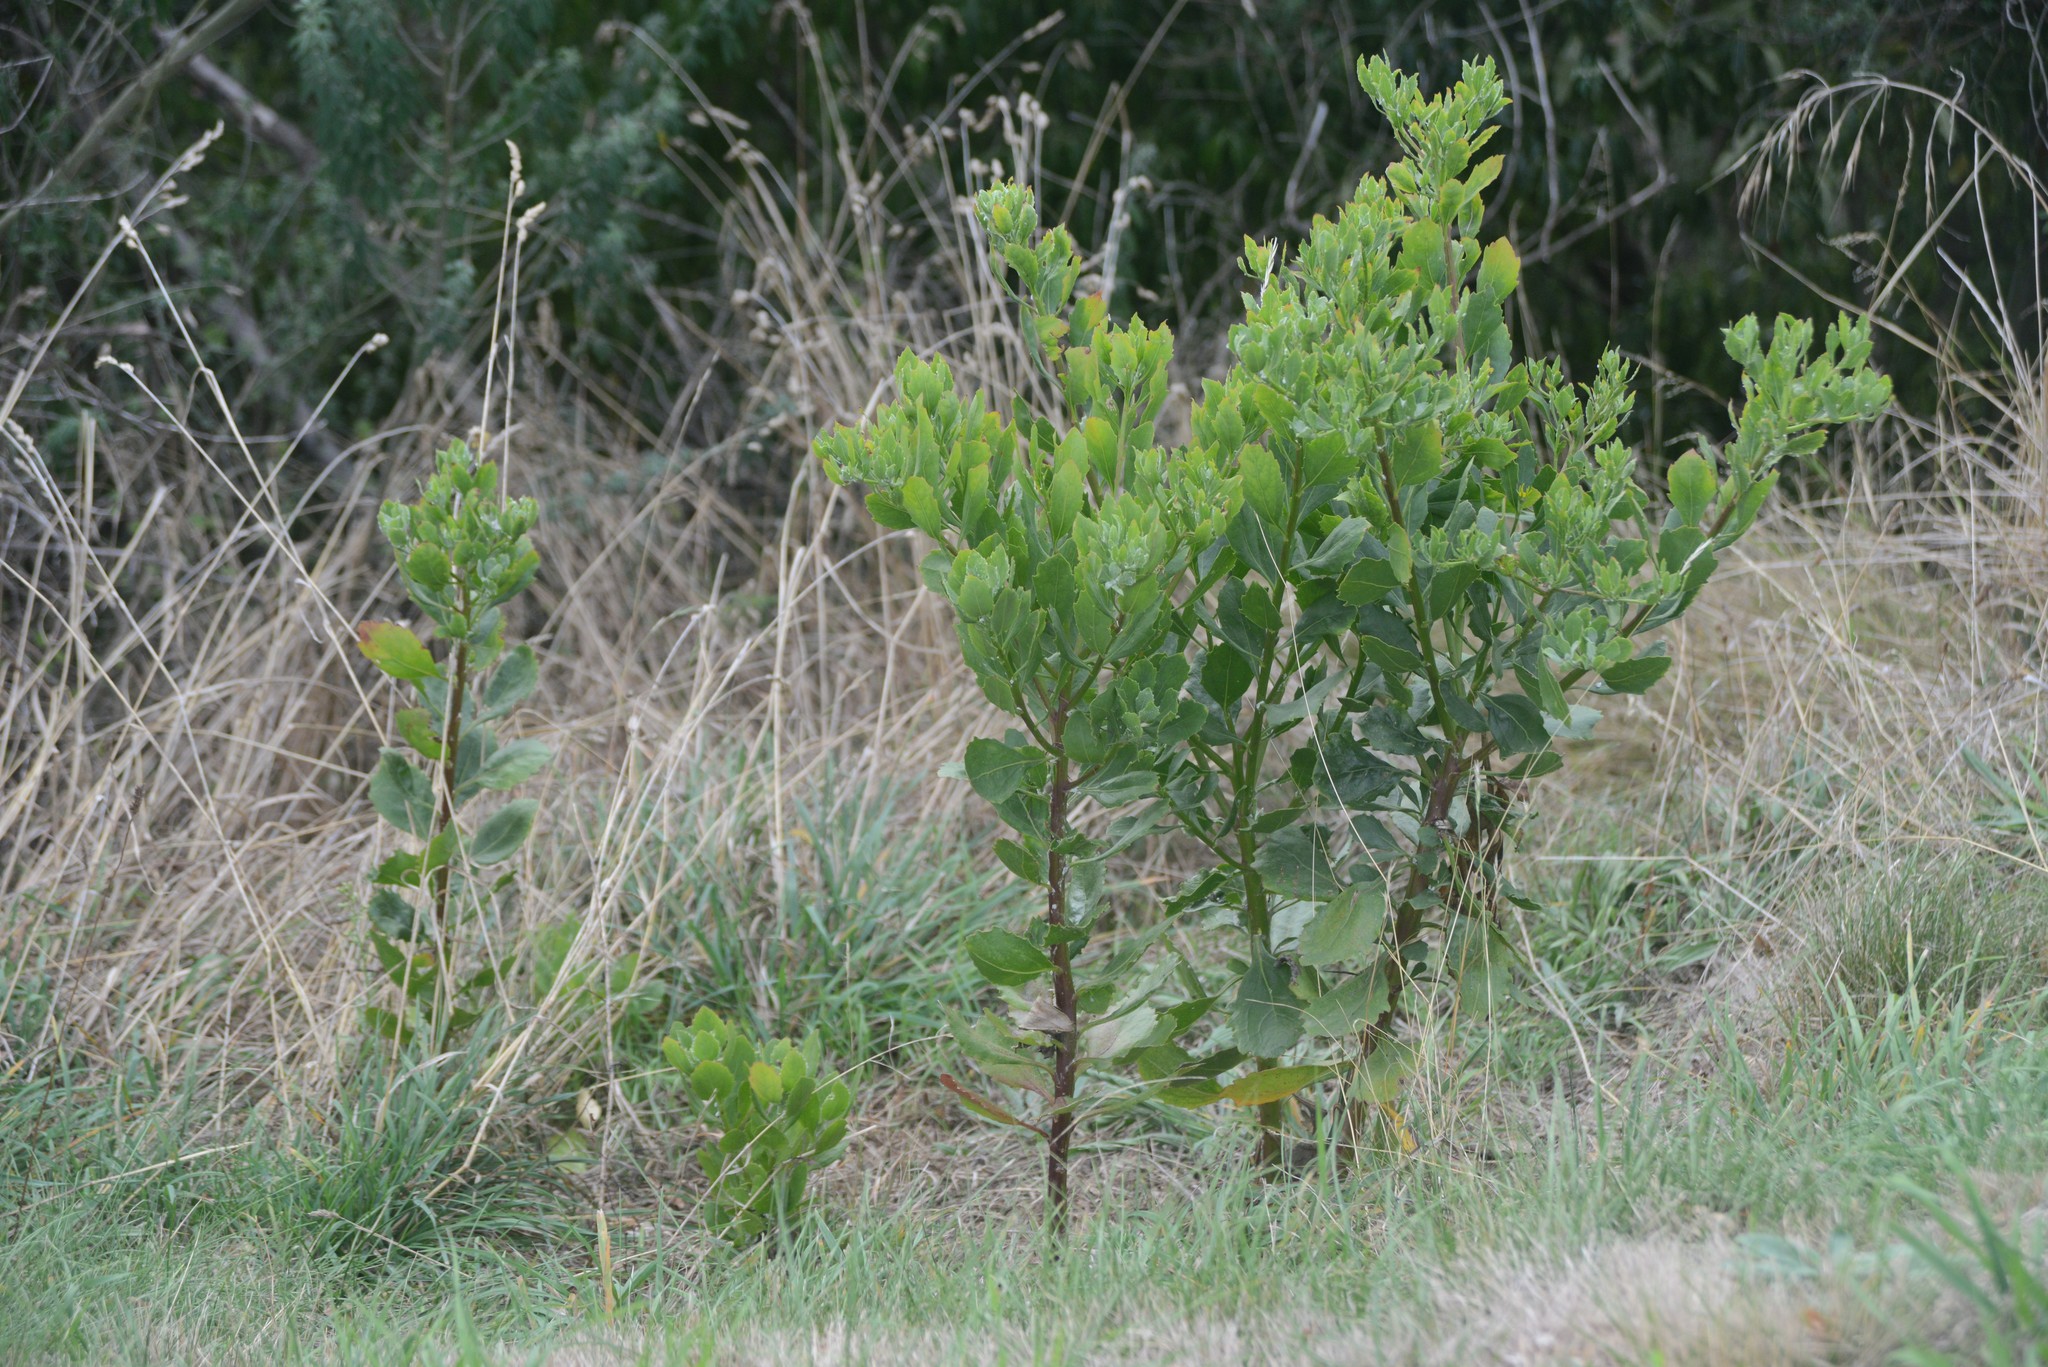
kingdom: Plantae
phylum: Tracheophyta
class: Magnoliopsida
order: Asterales
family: Asteraceae
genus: Osteospermum
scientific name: Osteospermum moniliferum
